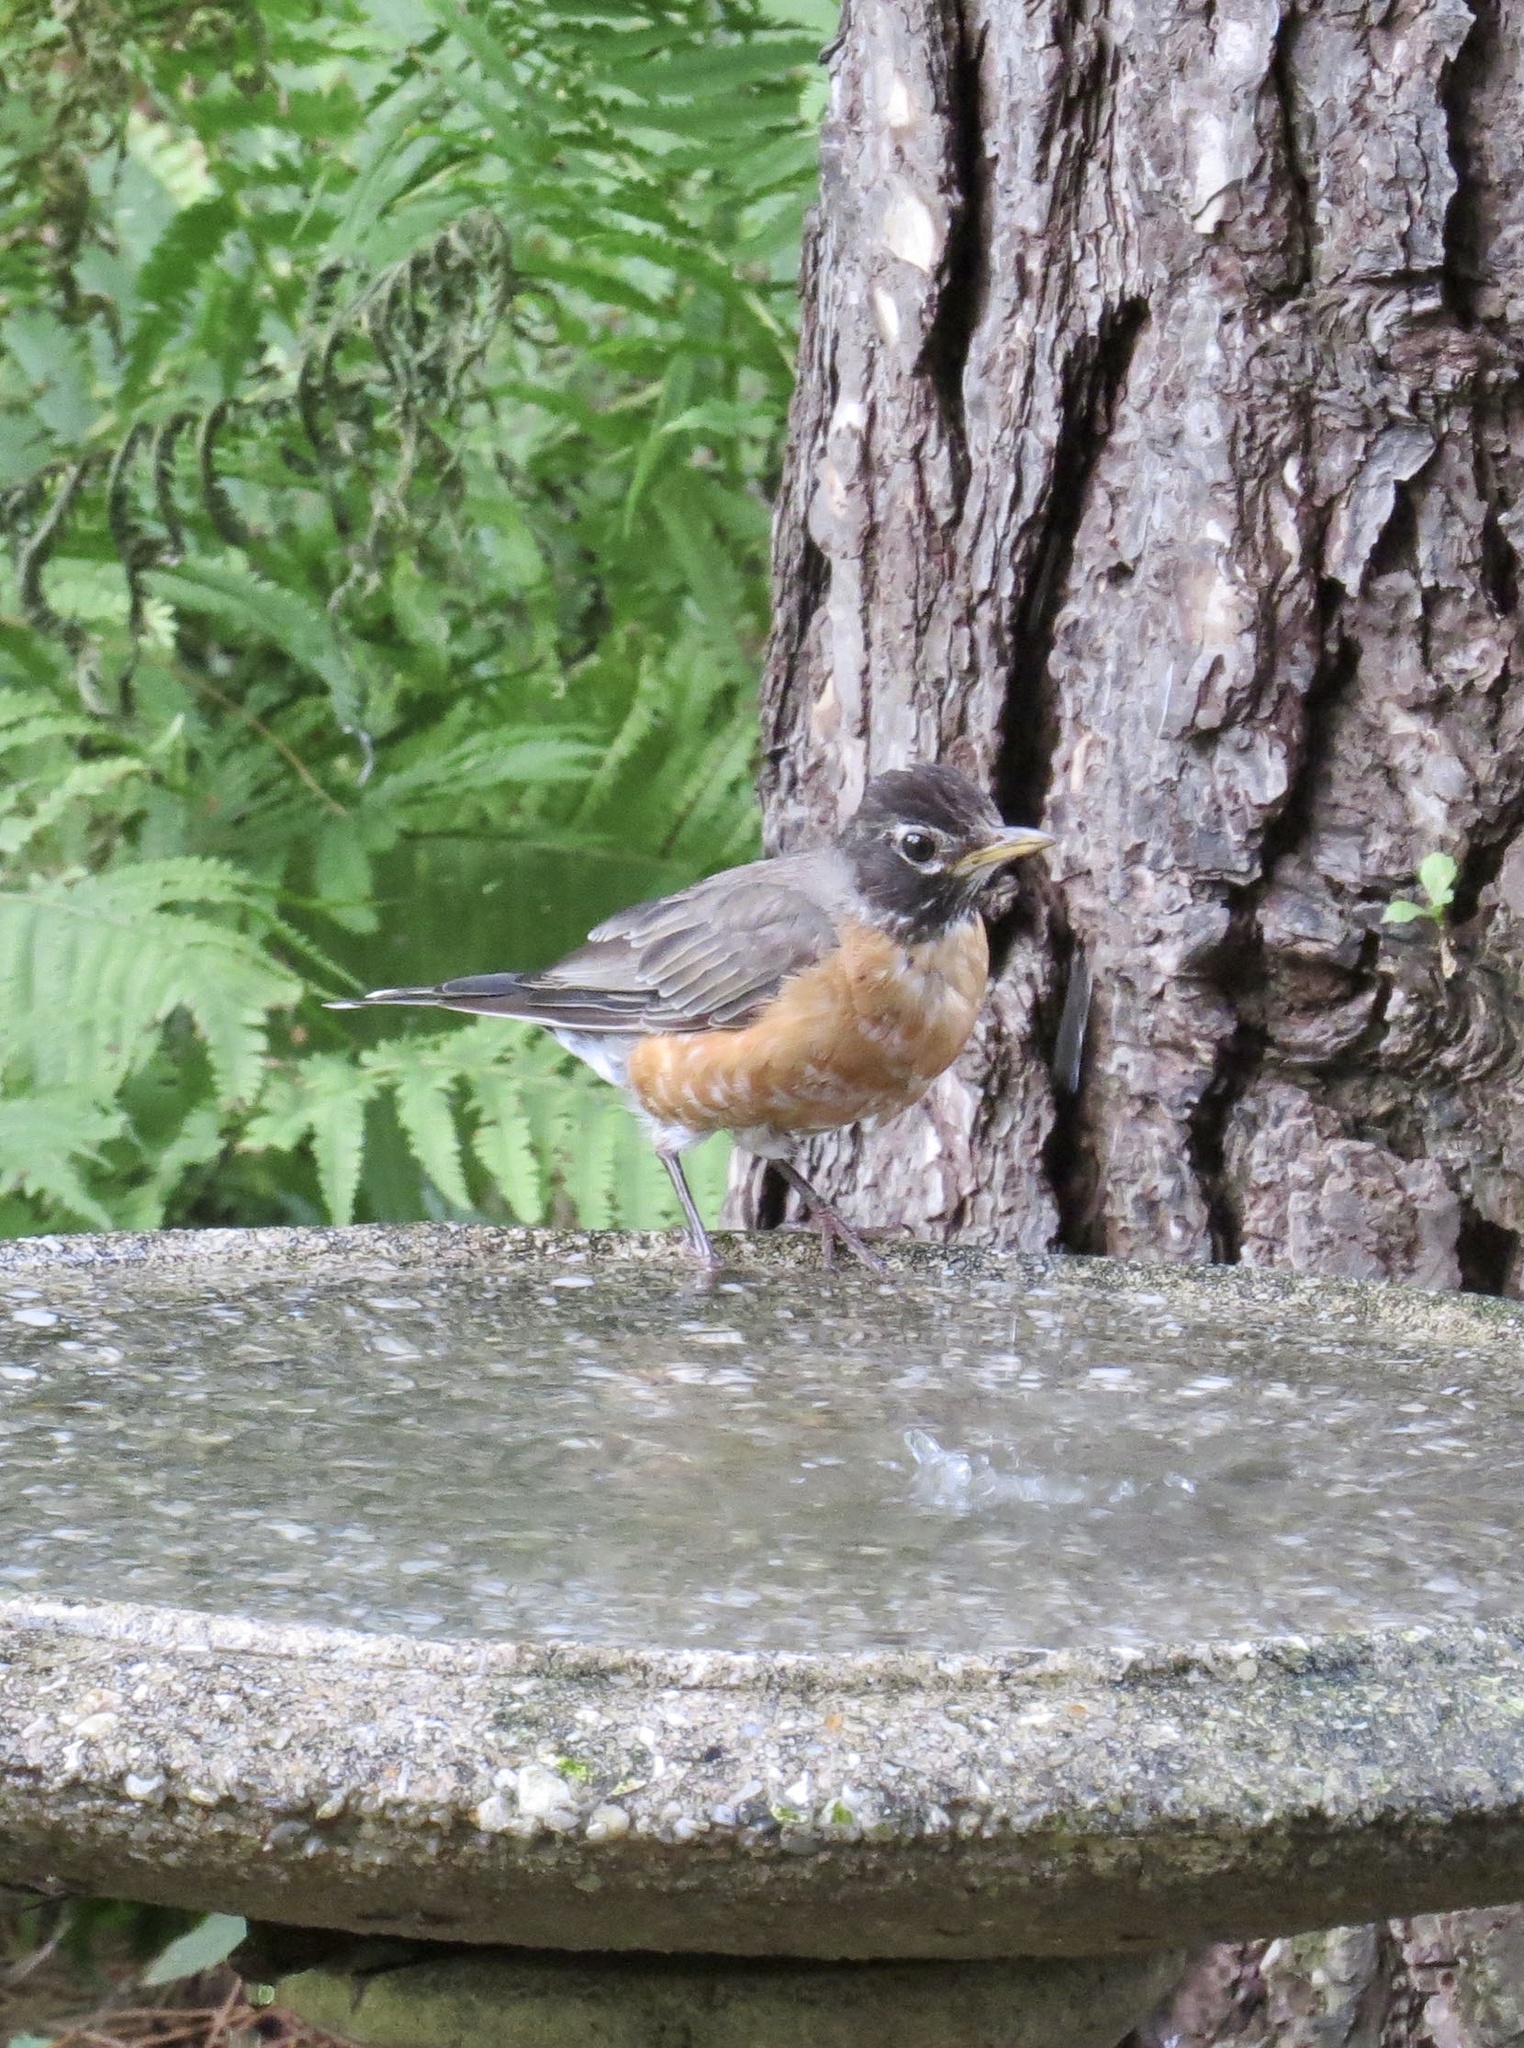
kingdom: Animalia
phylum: Chordata
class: Aves
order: Passeriformes
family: Turdidae
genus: Turdus
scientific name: Turdus migratorius
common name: American robin
